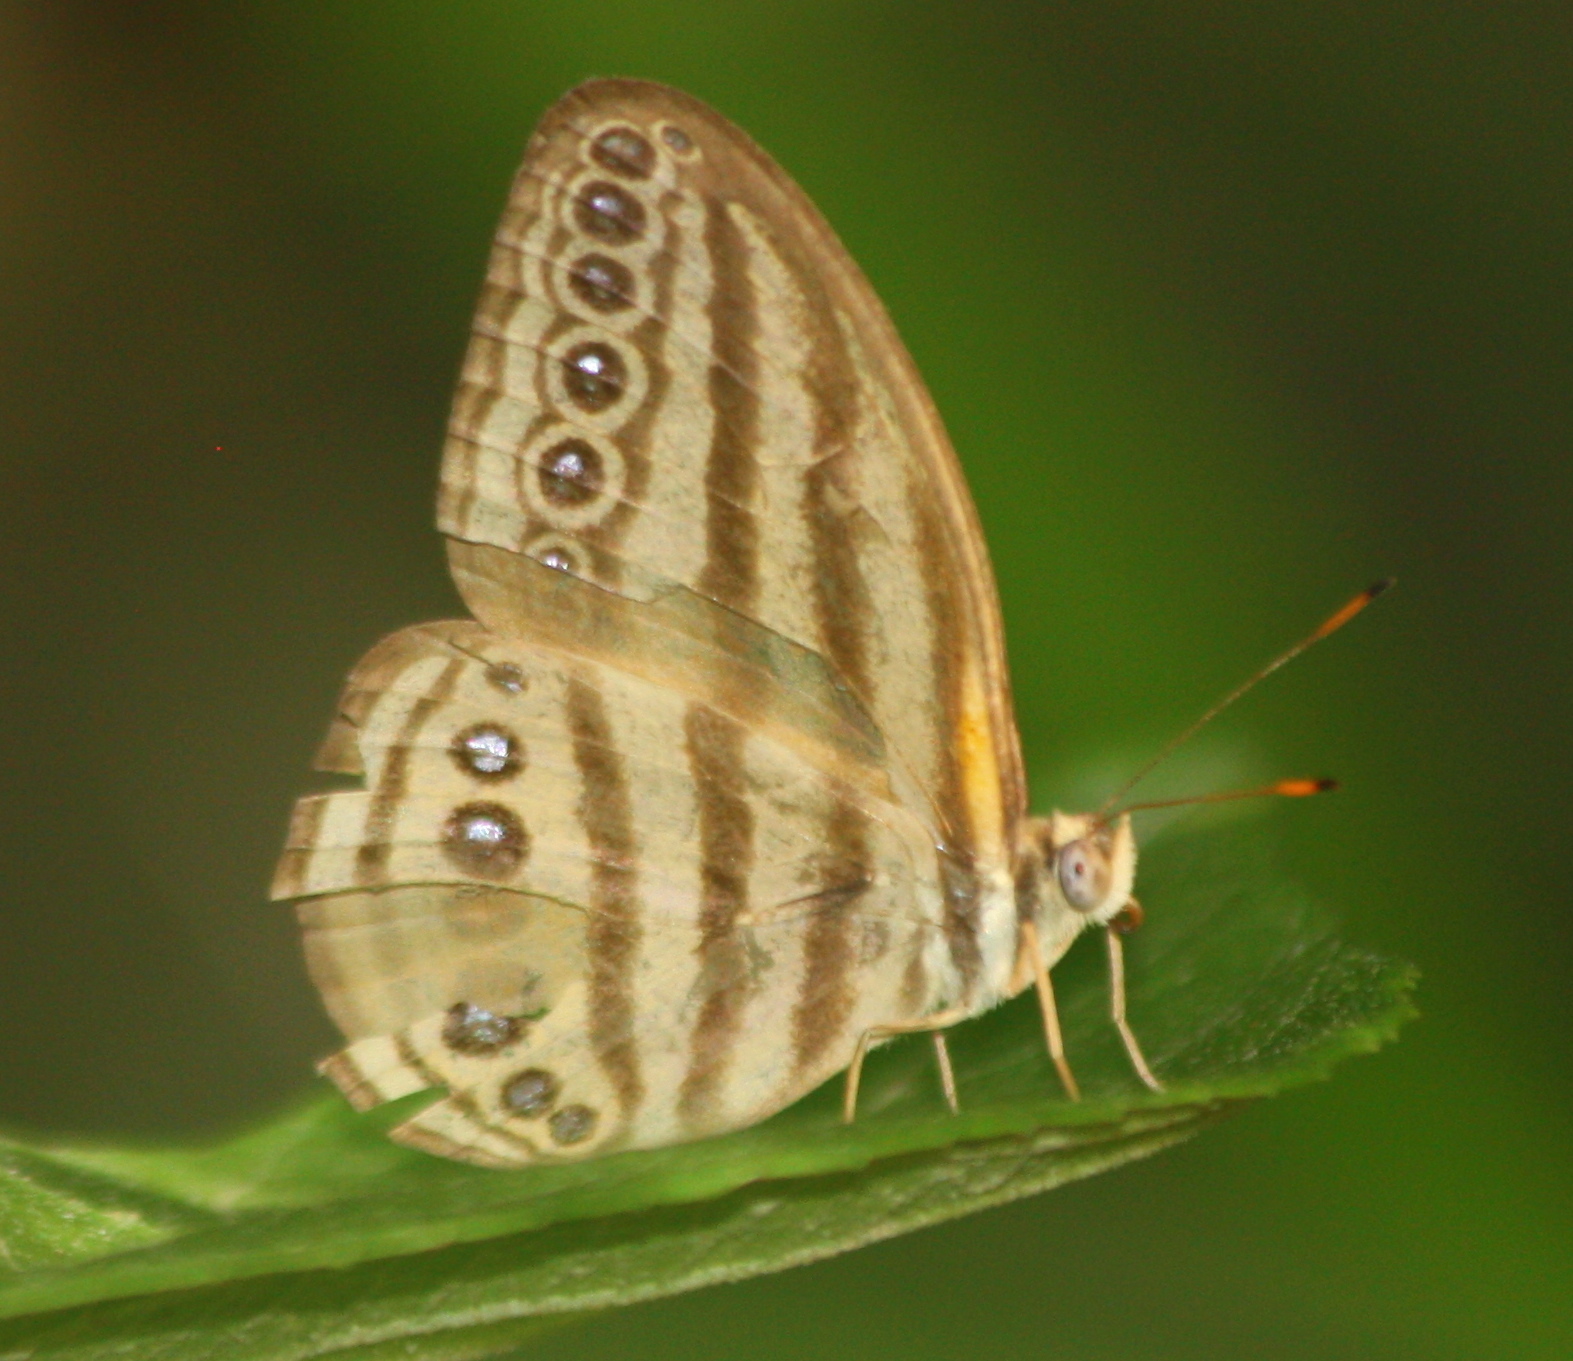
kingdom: Animalia
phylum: Arthropoda
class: Insecta
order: Lepidoptera
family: Nymphalidae
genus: Ragadia
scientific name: Ragadia makuta
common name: Striped ringlet
